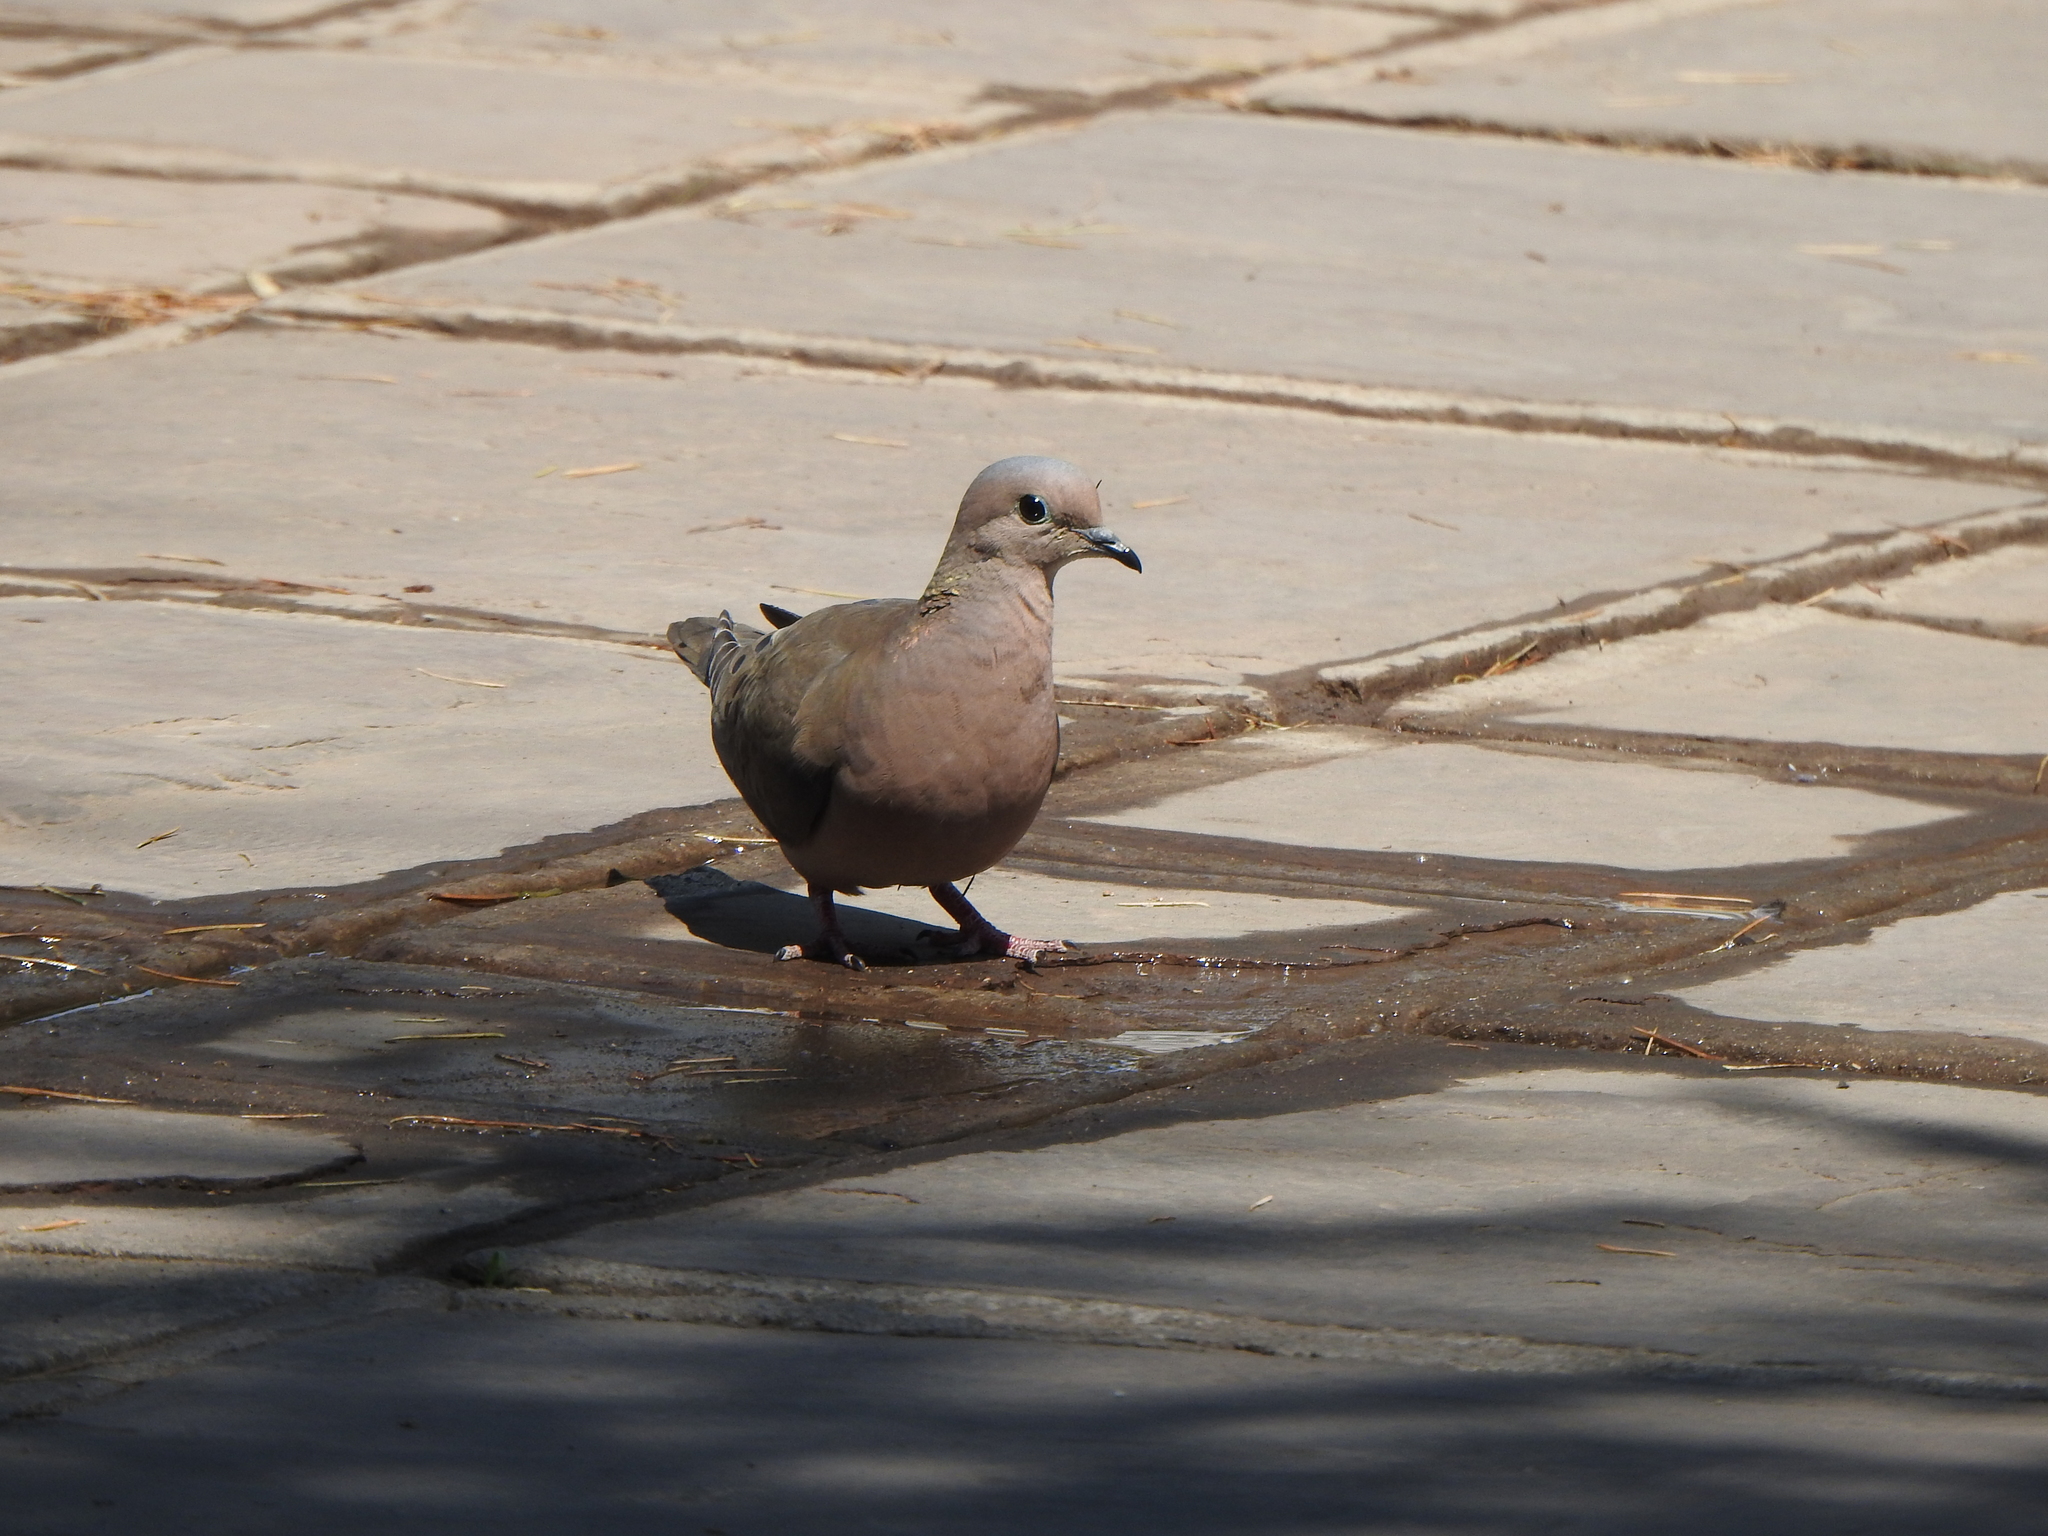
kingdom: Animalia
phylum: Chordata
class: Aves
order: Columbiformes
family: Columbidae
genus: Zenaida
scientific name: Zenaida auriculata
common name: Eared dove
